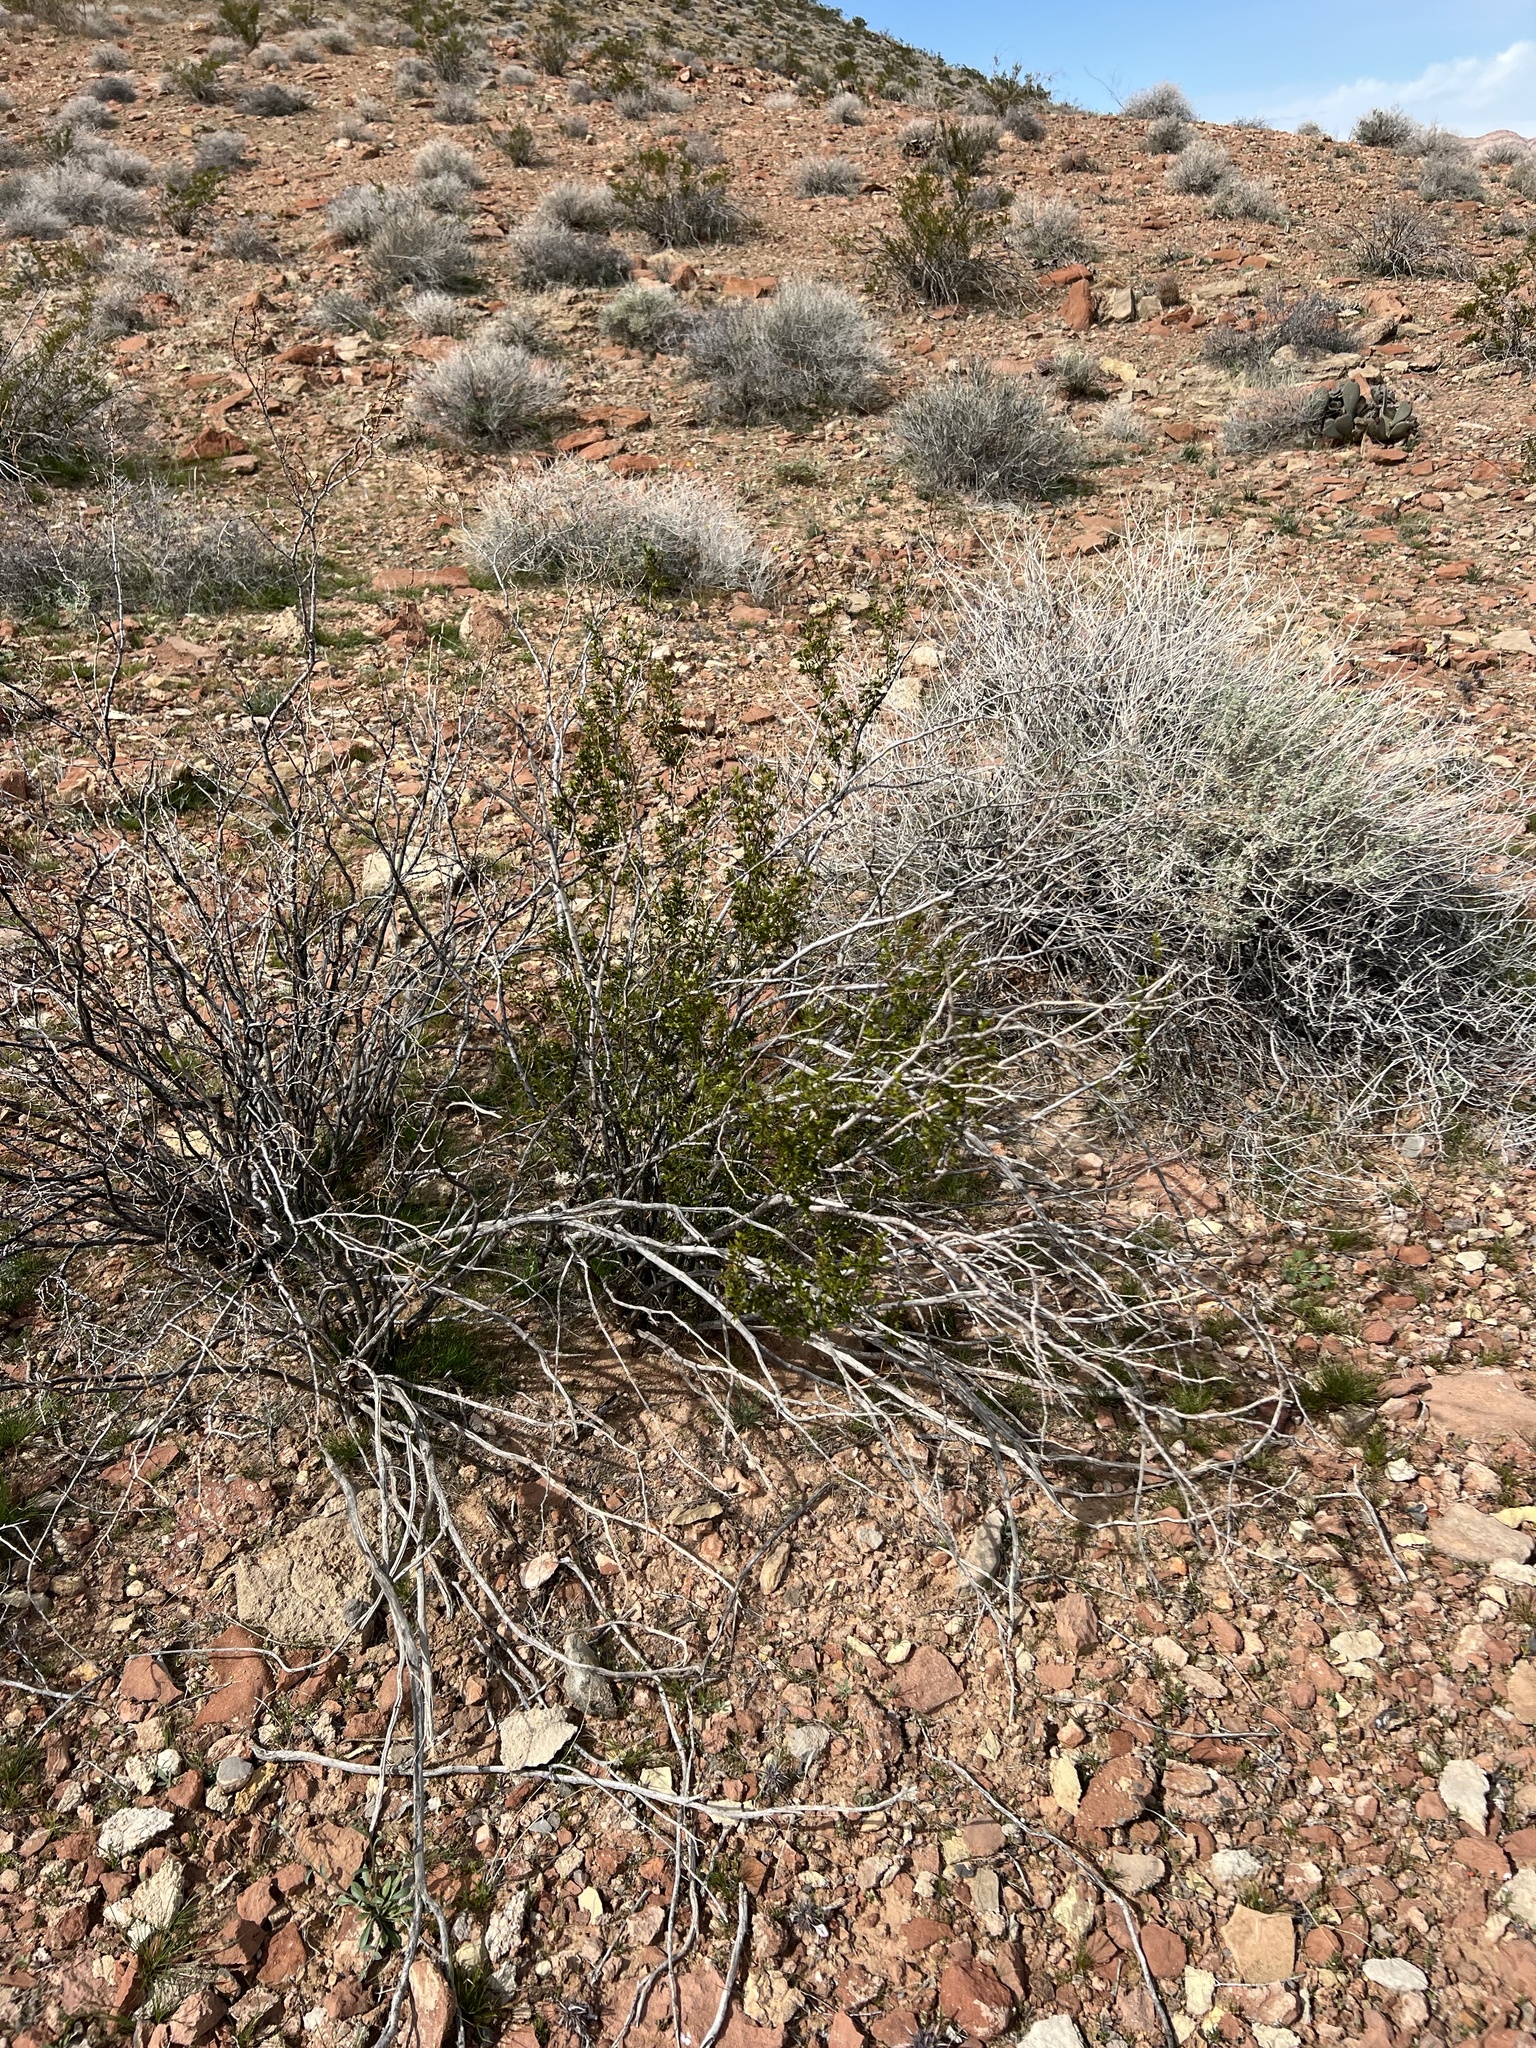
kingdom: Plantae
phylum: Tracheophyta
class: Magnoliopsida
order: Zygophyllales
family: Zygophyllaceae
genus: Larrea
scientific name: Larrea tridentata
